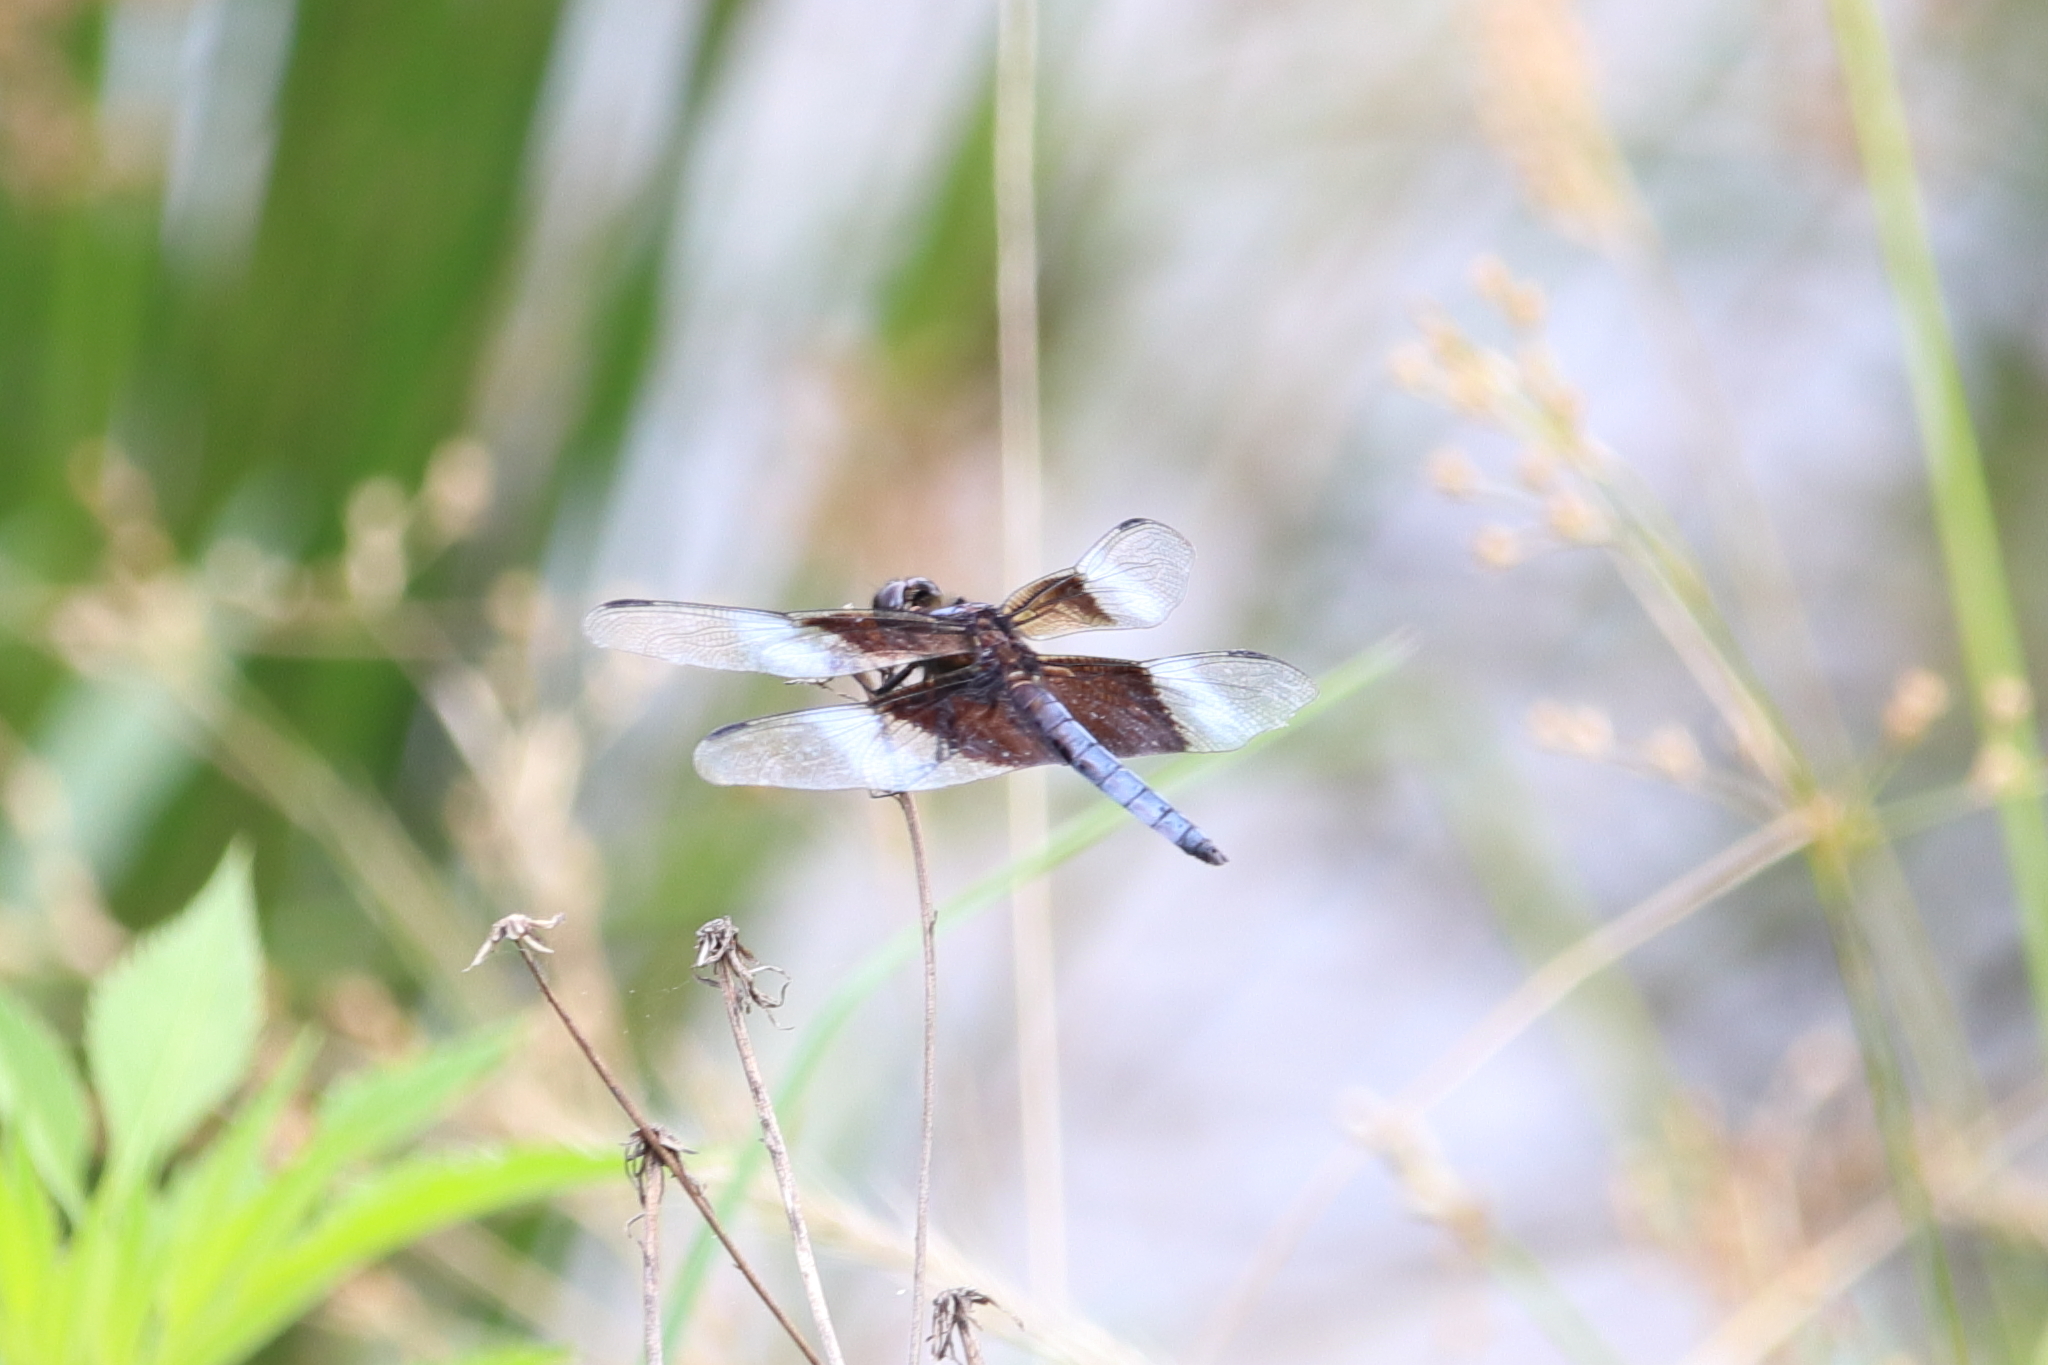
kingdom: Animalia
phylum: Arthropoda
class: Insecta
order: Odonata
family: Libellulidae
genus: Libellula
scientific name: Libellula luctuosa
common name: Widow skimmer
